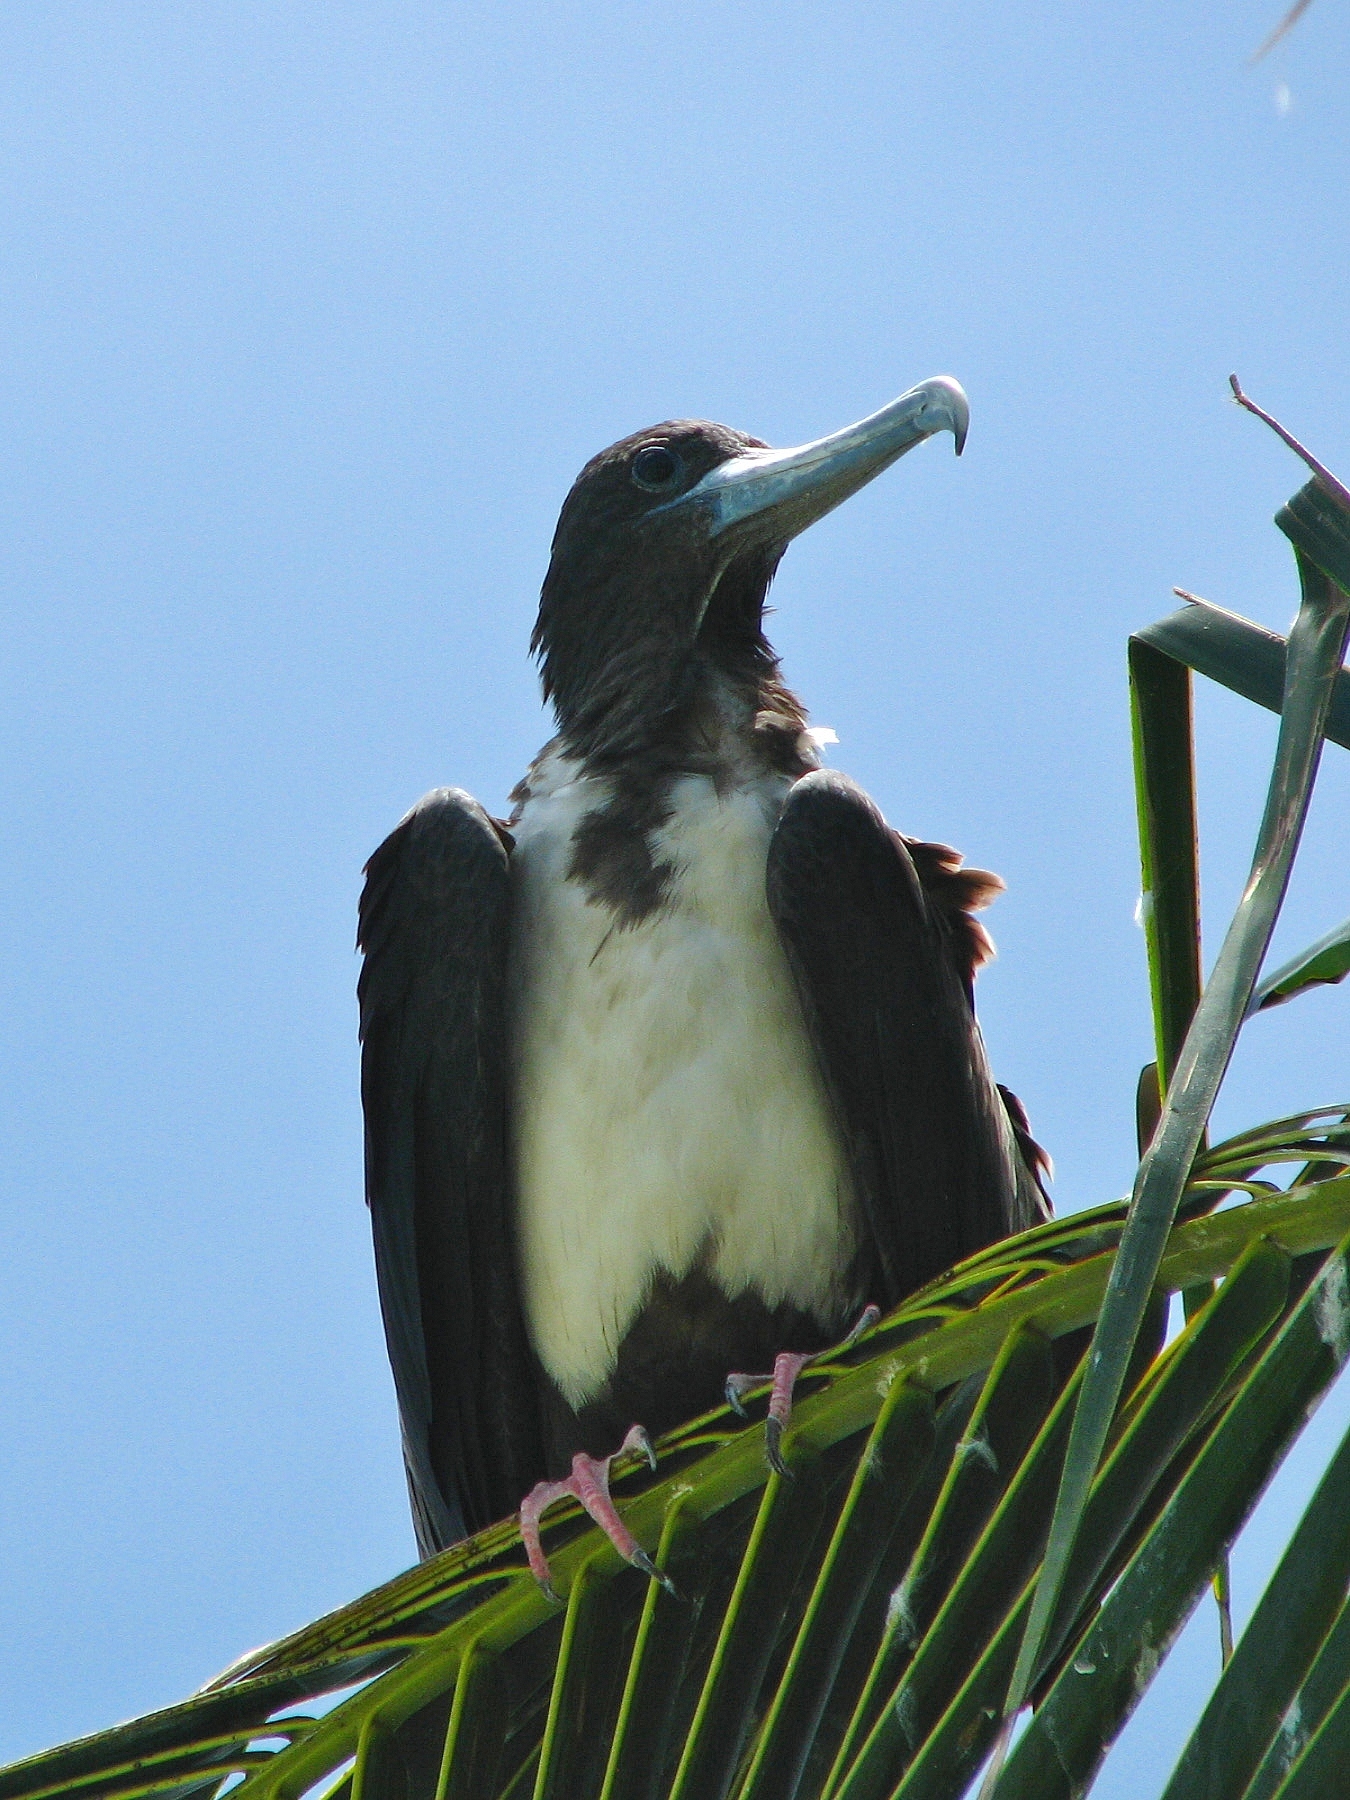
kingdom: Animalia
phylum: Chordata
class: Aves
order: Suliformes
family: Fregatidae
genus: Fregata
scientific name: Fregata magnificens
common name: Magnificent frigatebird
